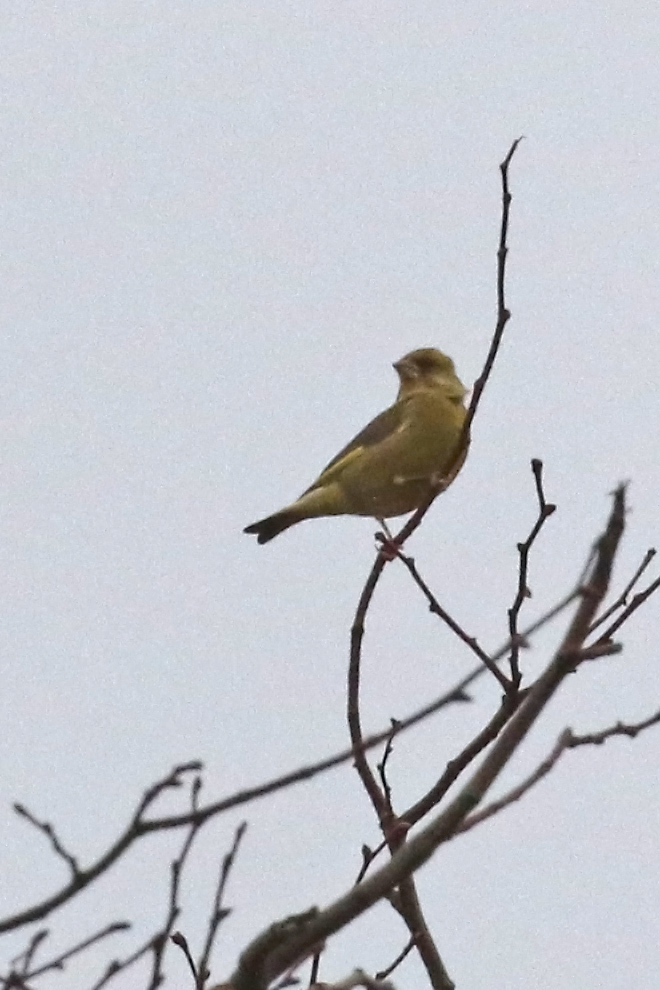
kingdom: Plantae
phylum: Tracheophyta
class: Liliopsida
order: Poales
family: Poaceae
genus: Chloris
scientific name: Chloris chloris
